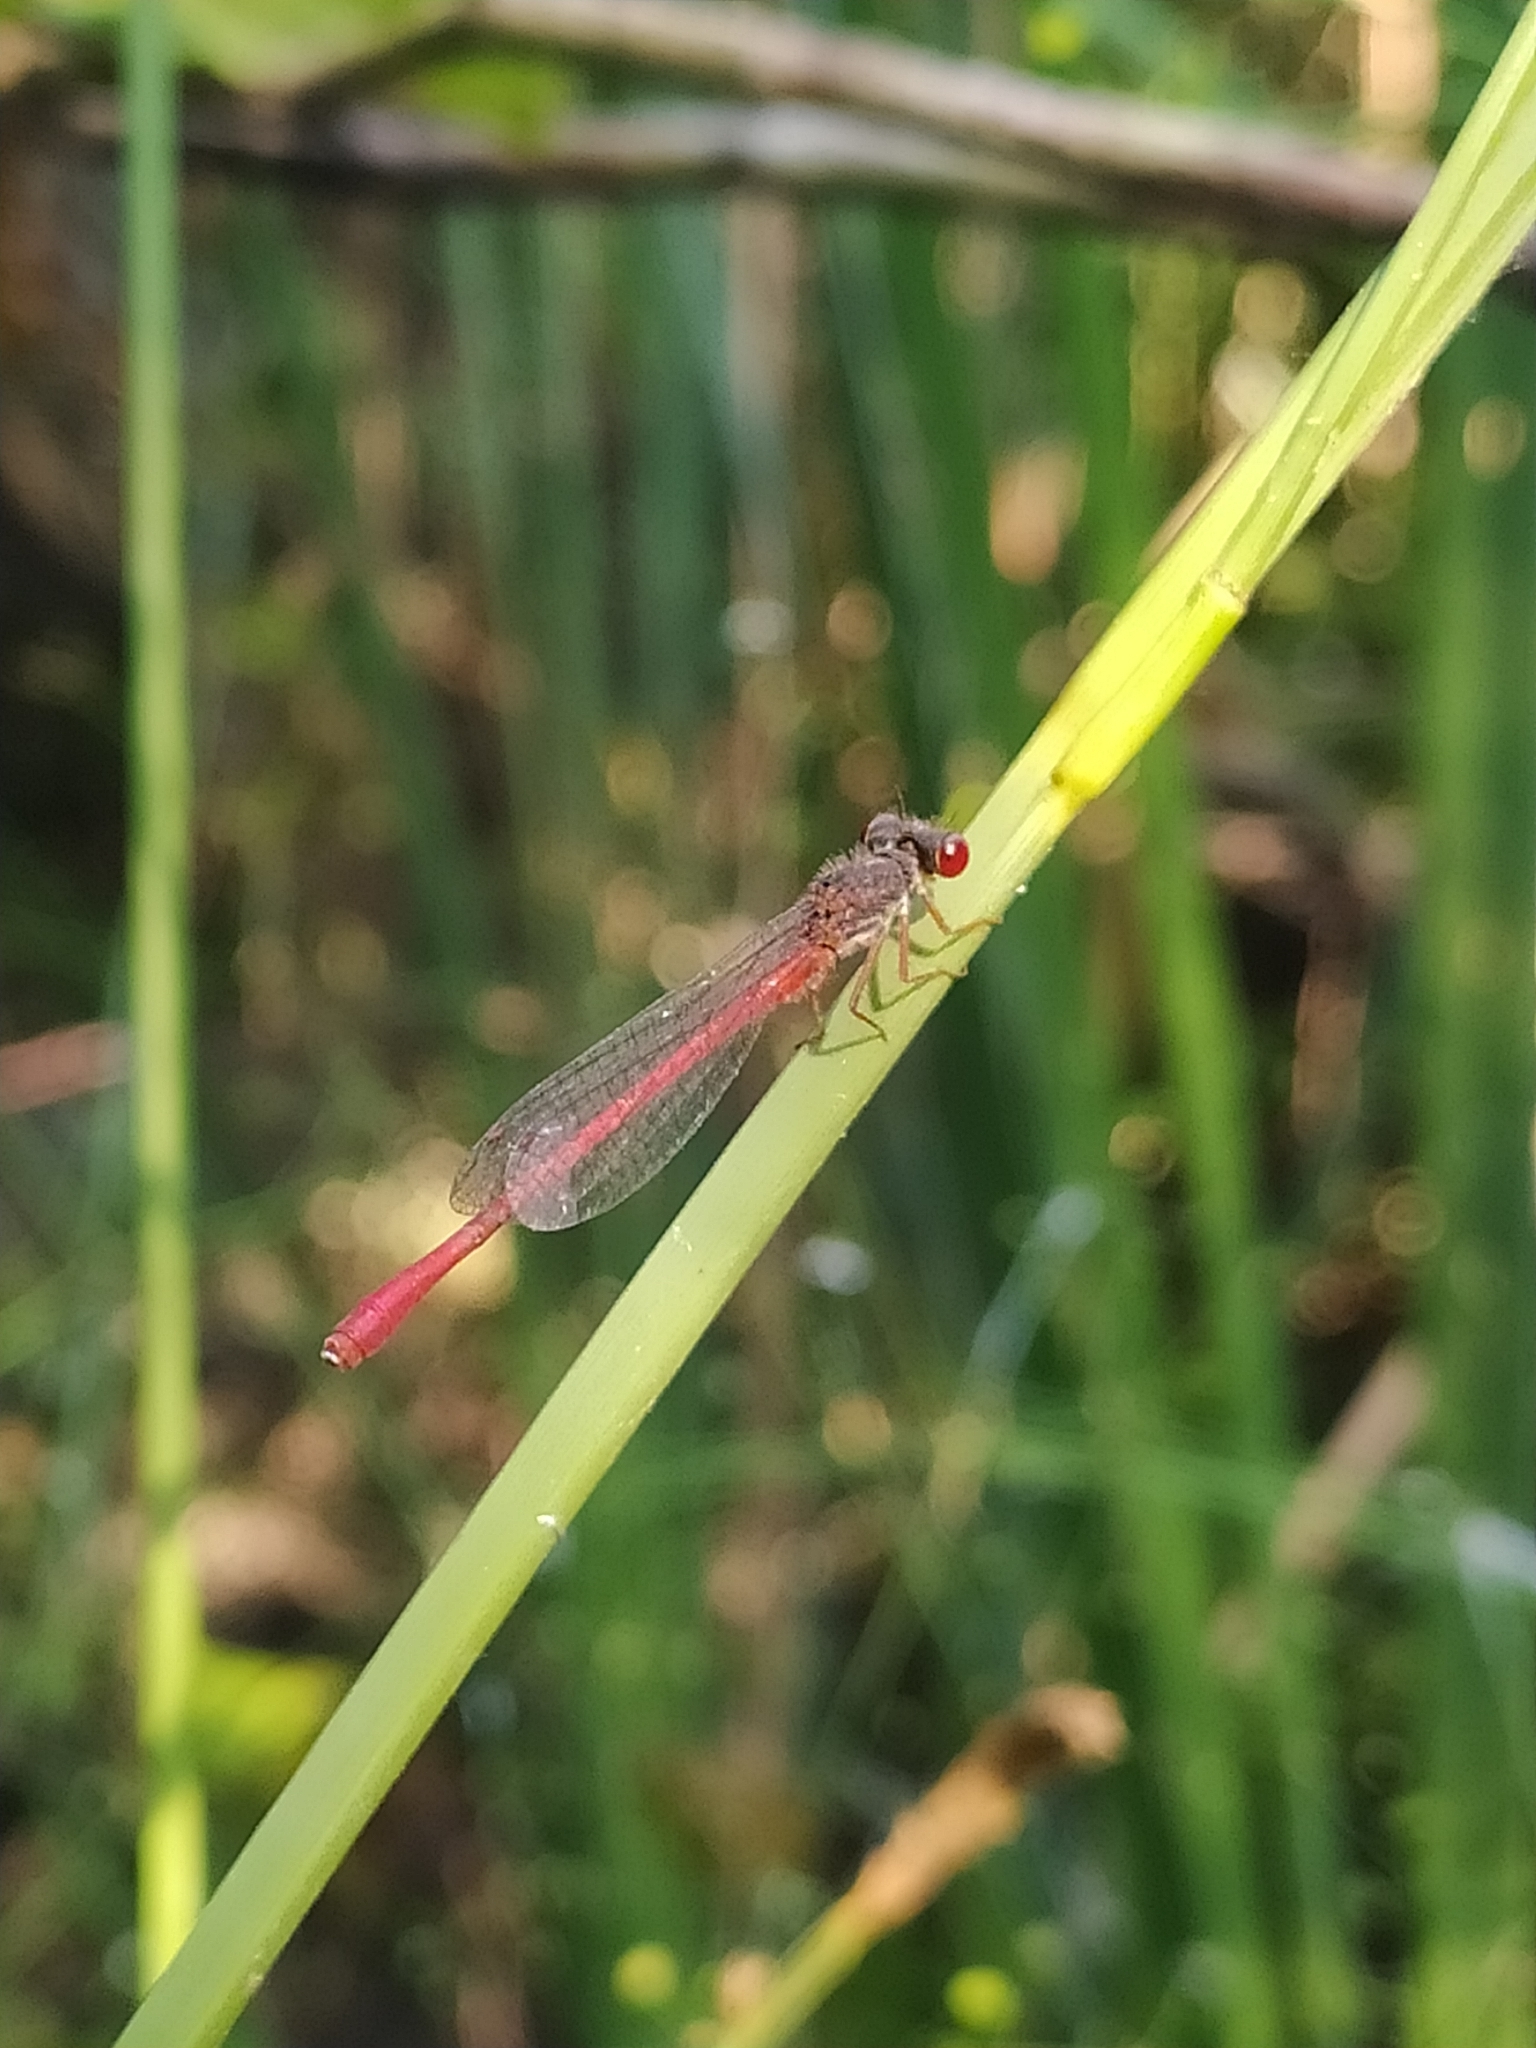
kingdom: Animalia
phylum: Arthropoda
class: Insecta
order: Odonata
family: Coenagrionidae
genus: Ceriagrion
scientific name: Ceriagrion tenellum
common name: Small red damselfly
